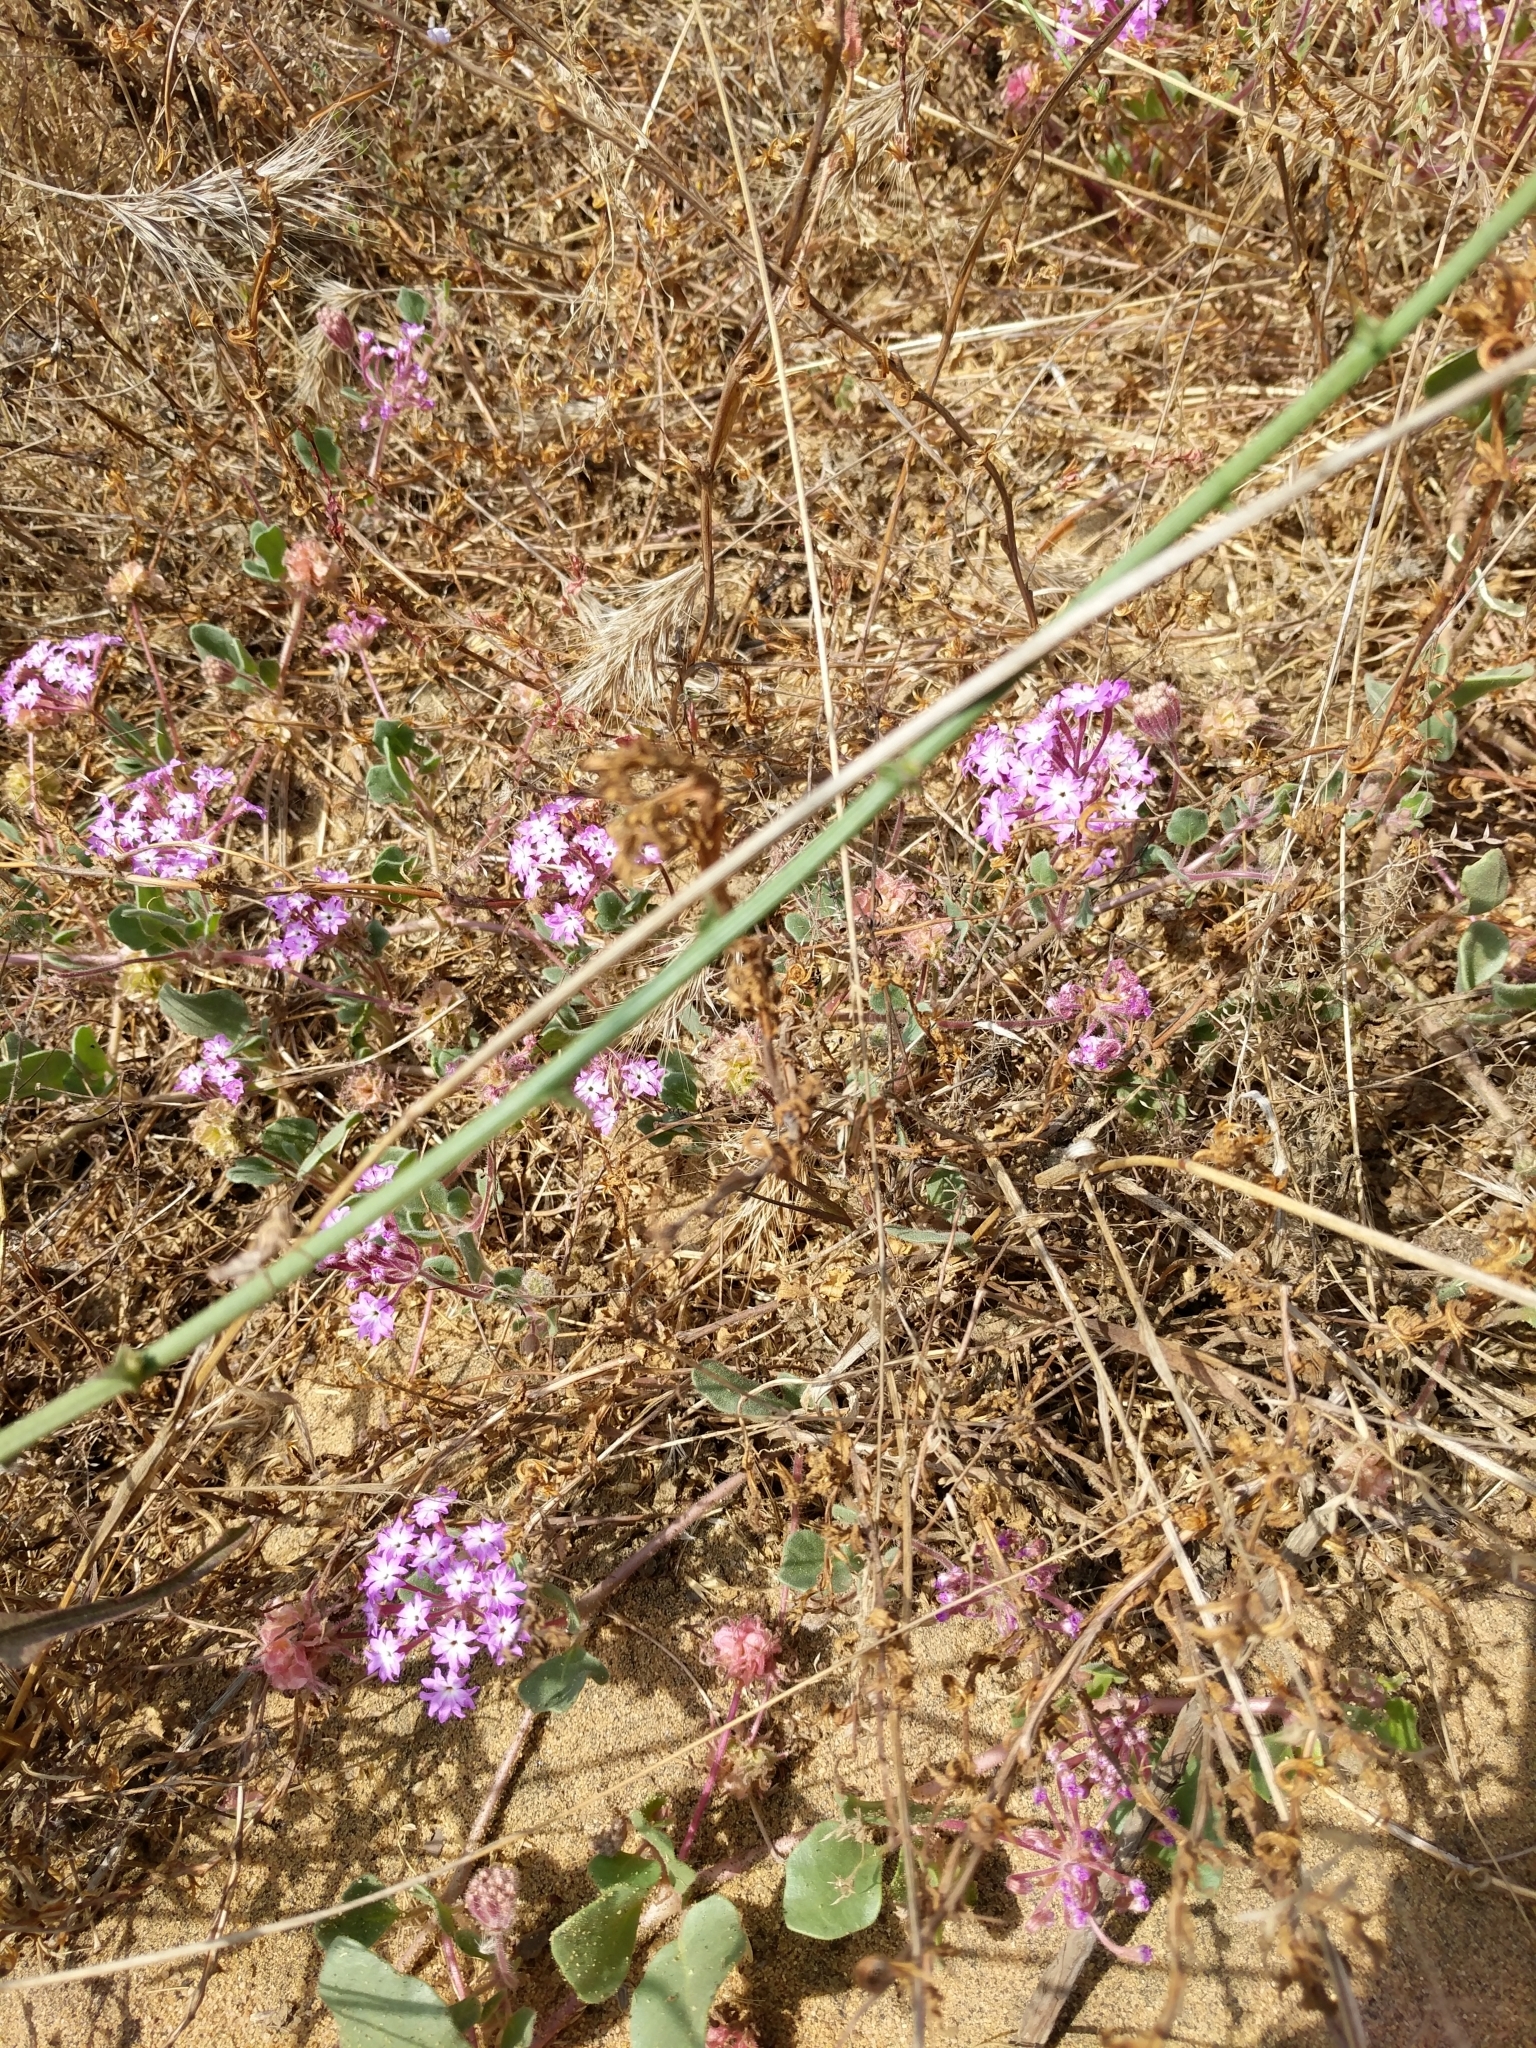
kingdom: Plantae
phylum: Tracheophyta
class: Magnoliopsida
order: Caryophyllales
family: Nyctaginaceae
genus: Abronia
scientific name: Abronia umbellata
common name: Sand-verbena
